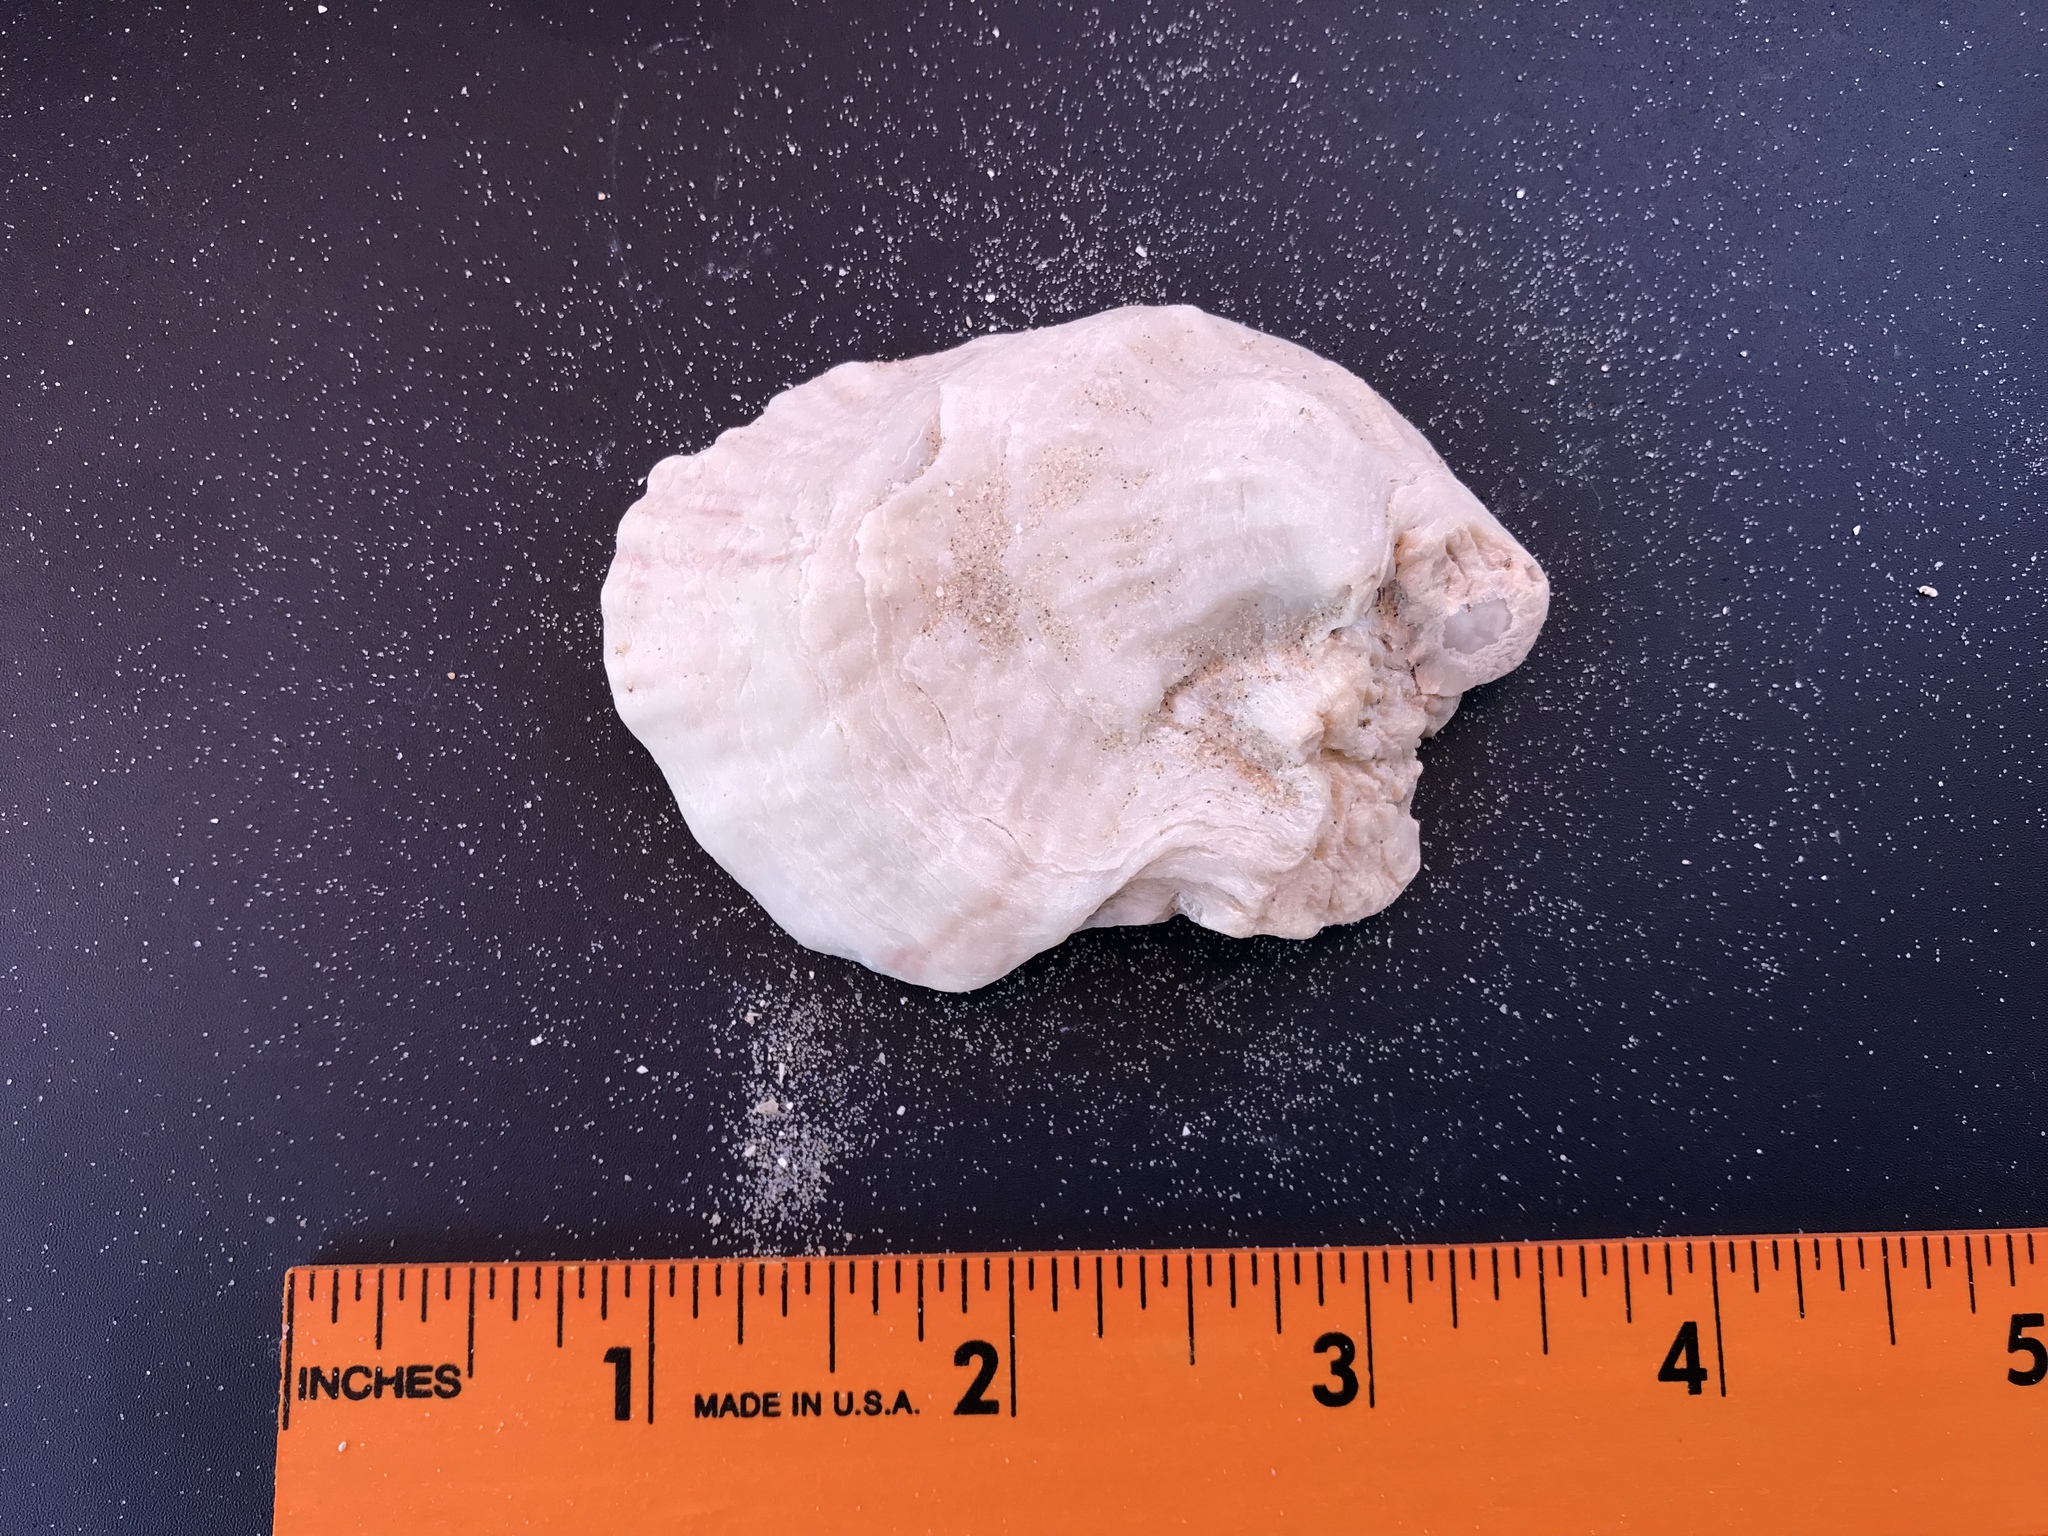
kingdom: Animalia
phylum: Mollusca
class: Bivalvia
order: Ostreida
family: Ostreidae
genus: Crassostrea
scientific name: Crassostrea virginica
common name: American oyster
